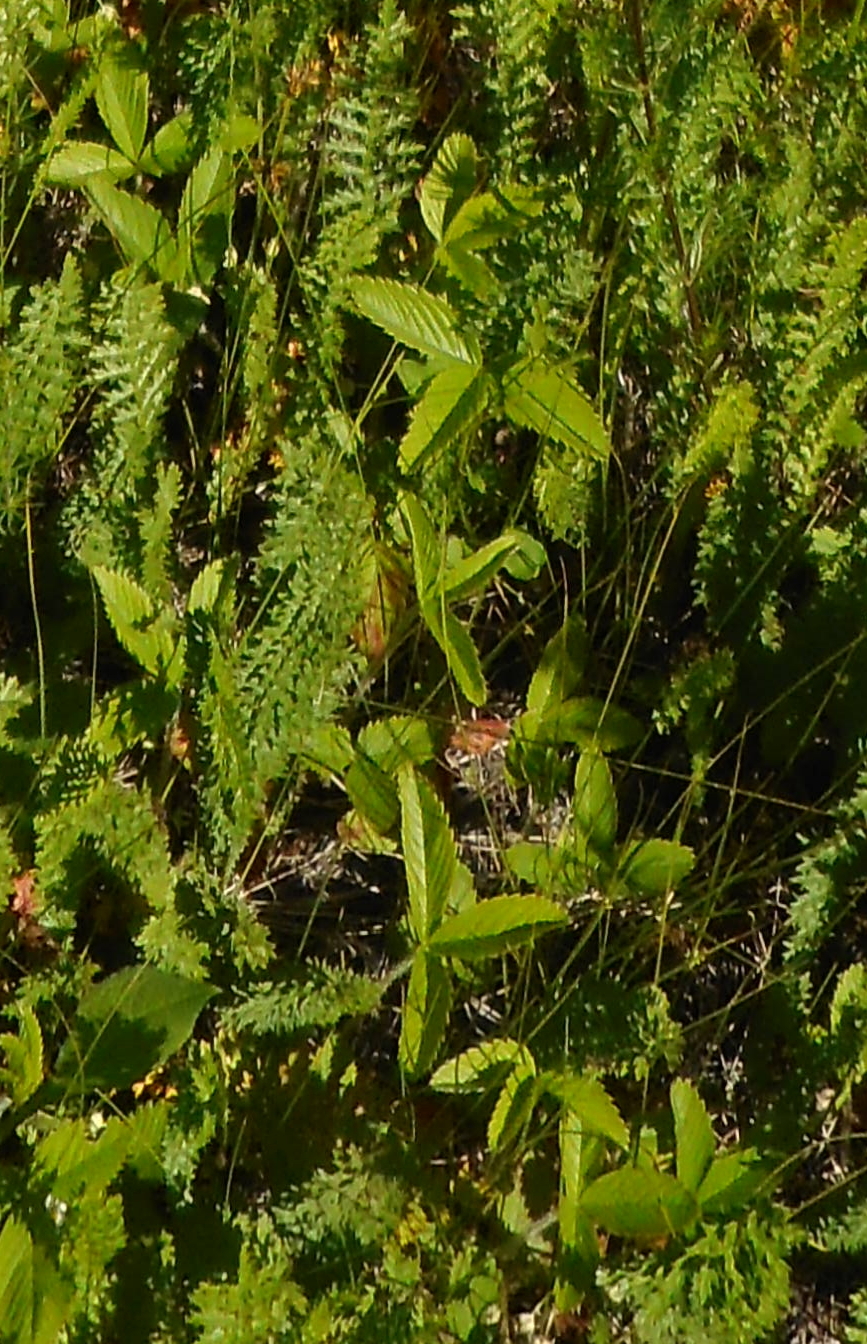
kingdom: Plantae
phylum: Tracheophyta
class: Magnoliopsida
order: Rosales
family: Rosaceae
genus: Fragaria
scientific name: Fragaria viridis
